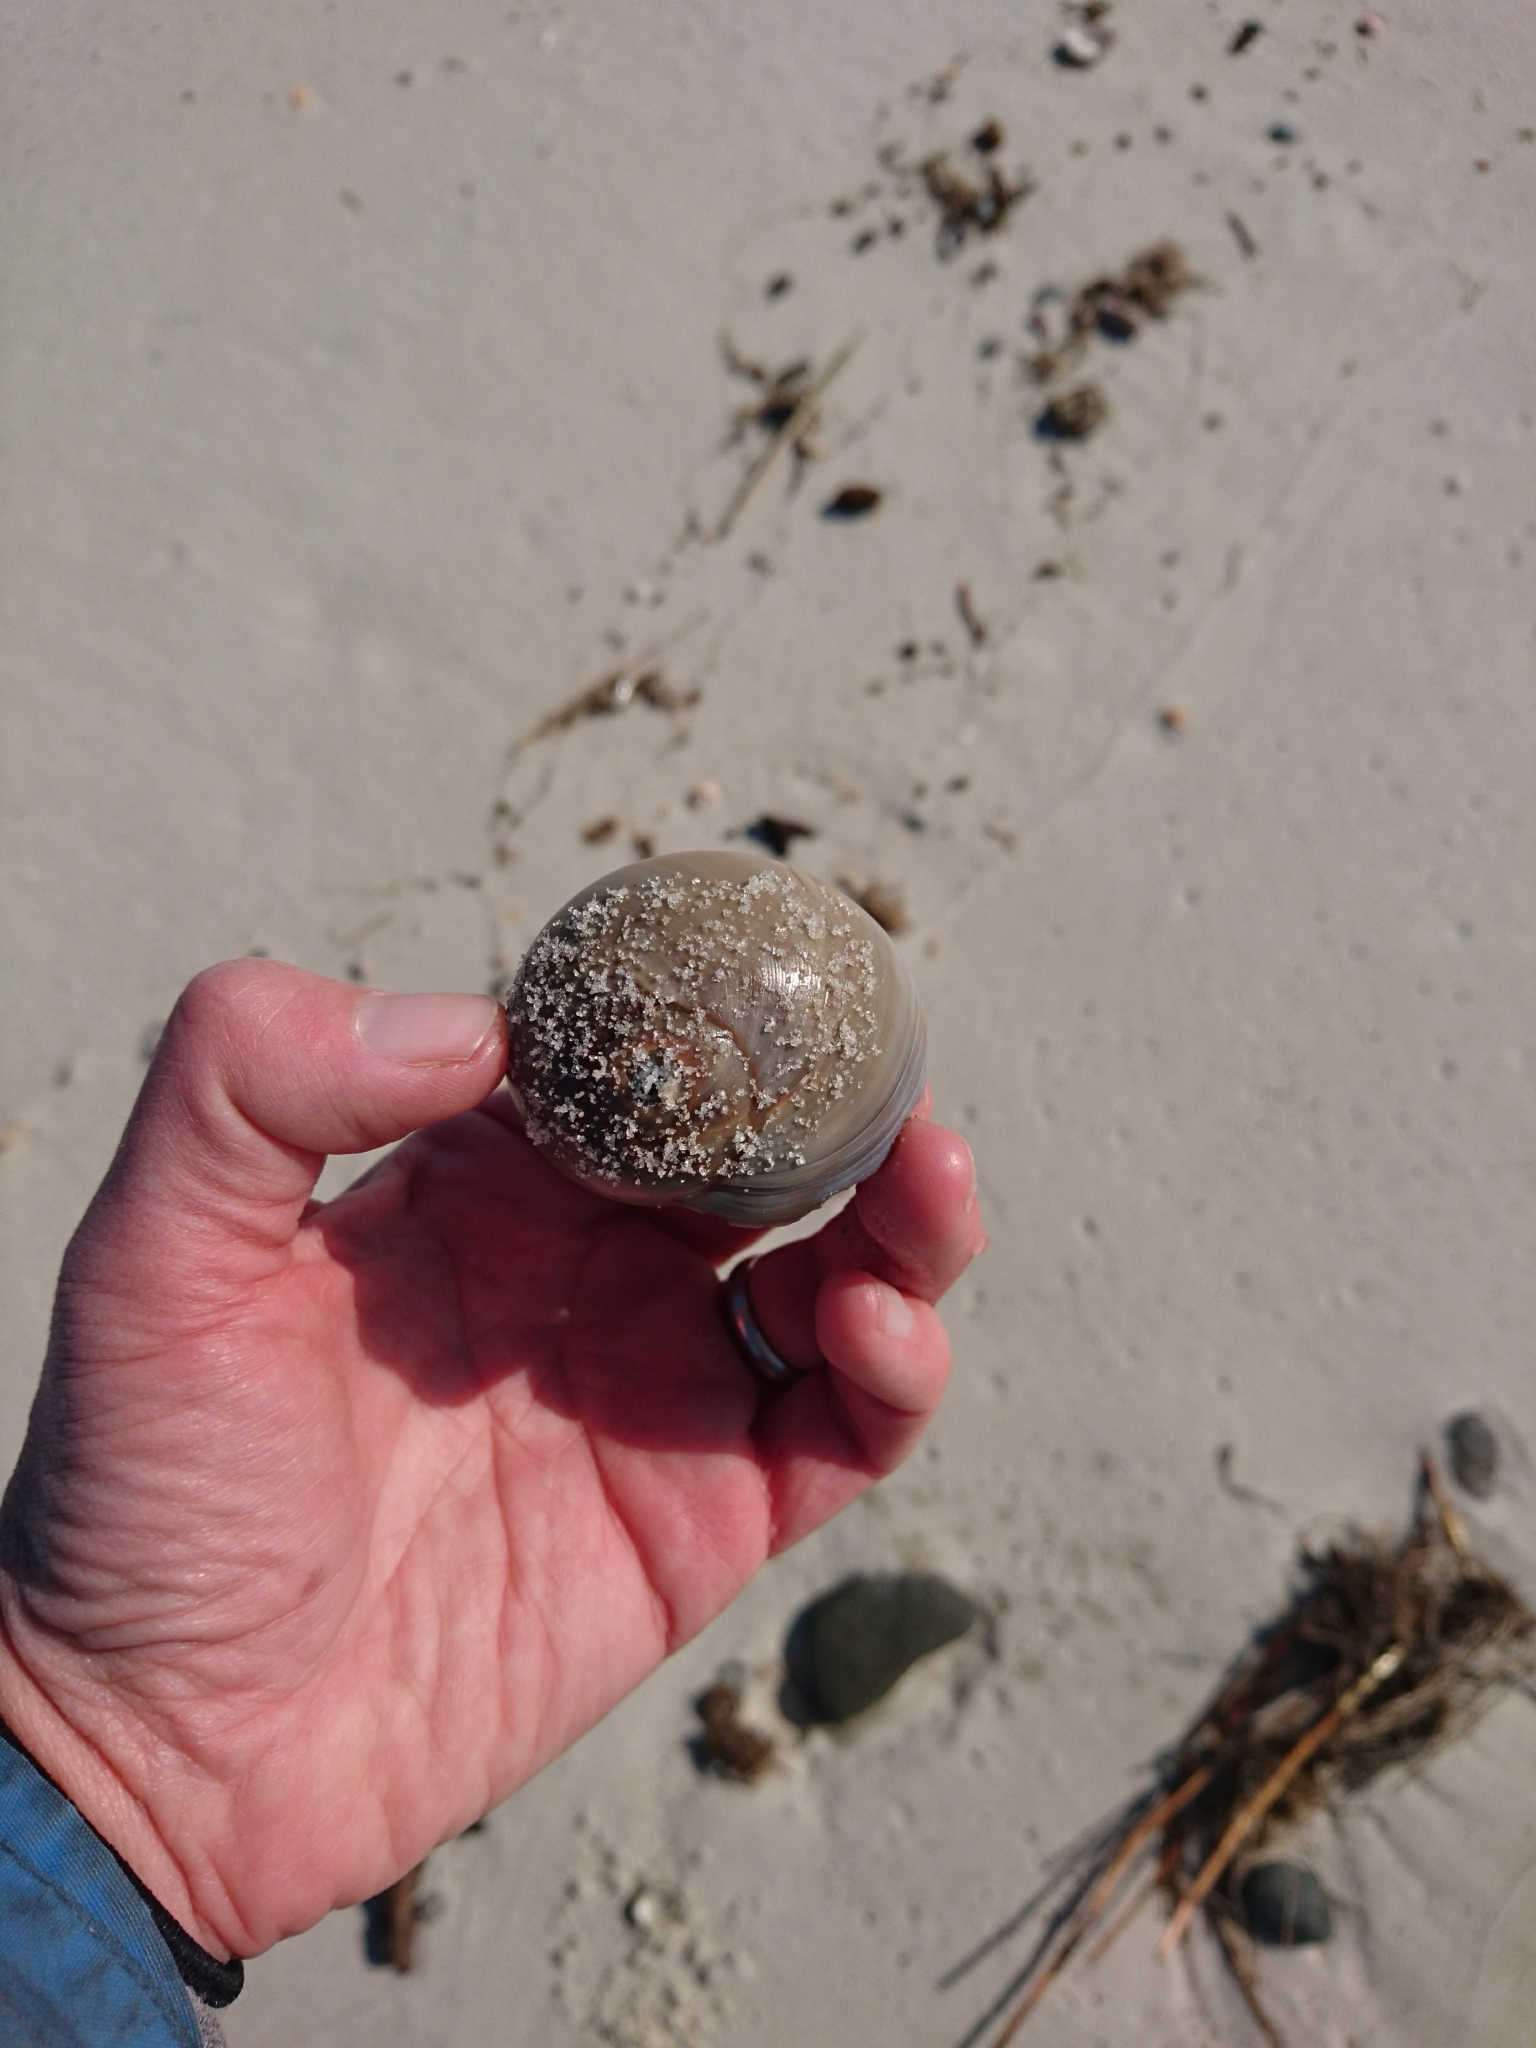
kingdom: Animalia
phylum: Mollusca
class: Gastropoda
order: Littorinimorpha
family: Naticidae
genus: Neverita
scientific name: Neverita duplicata
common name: Lobed moonsnail
